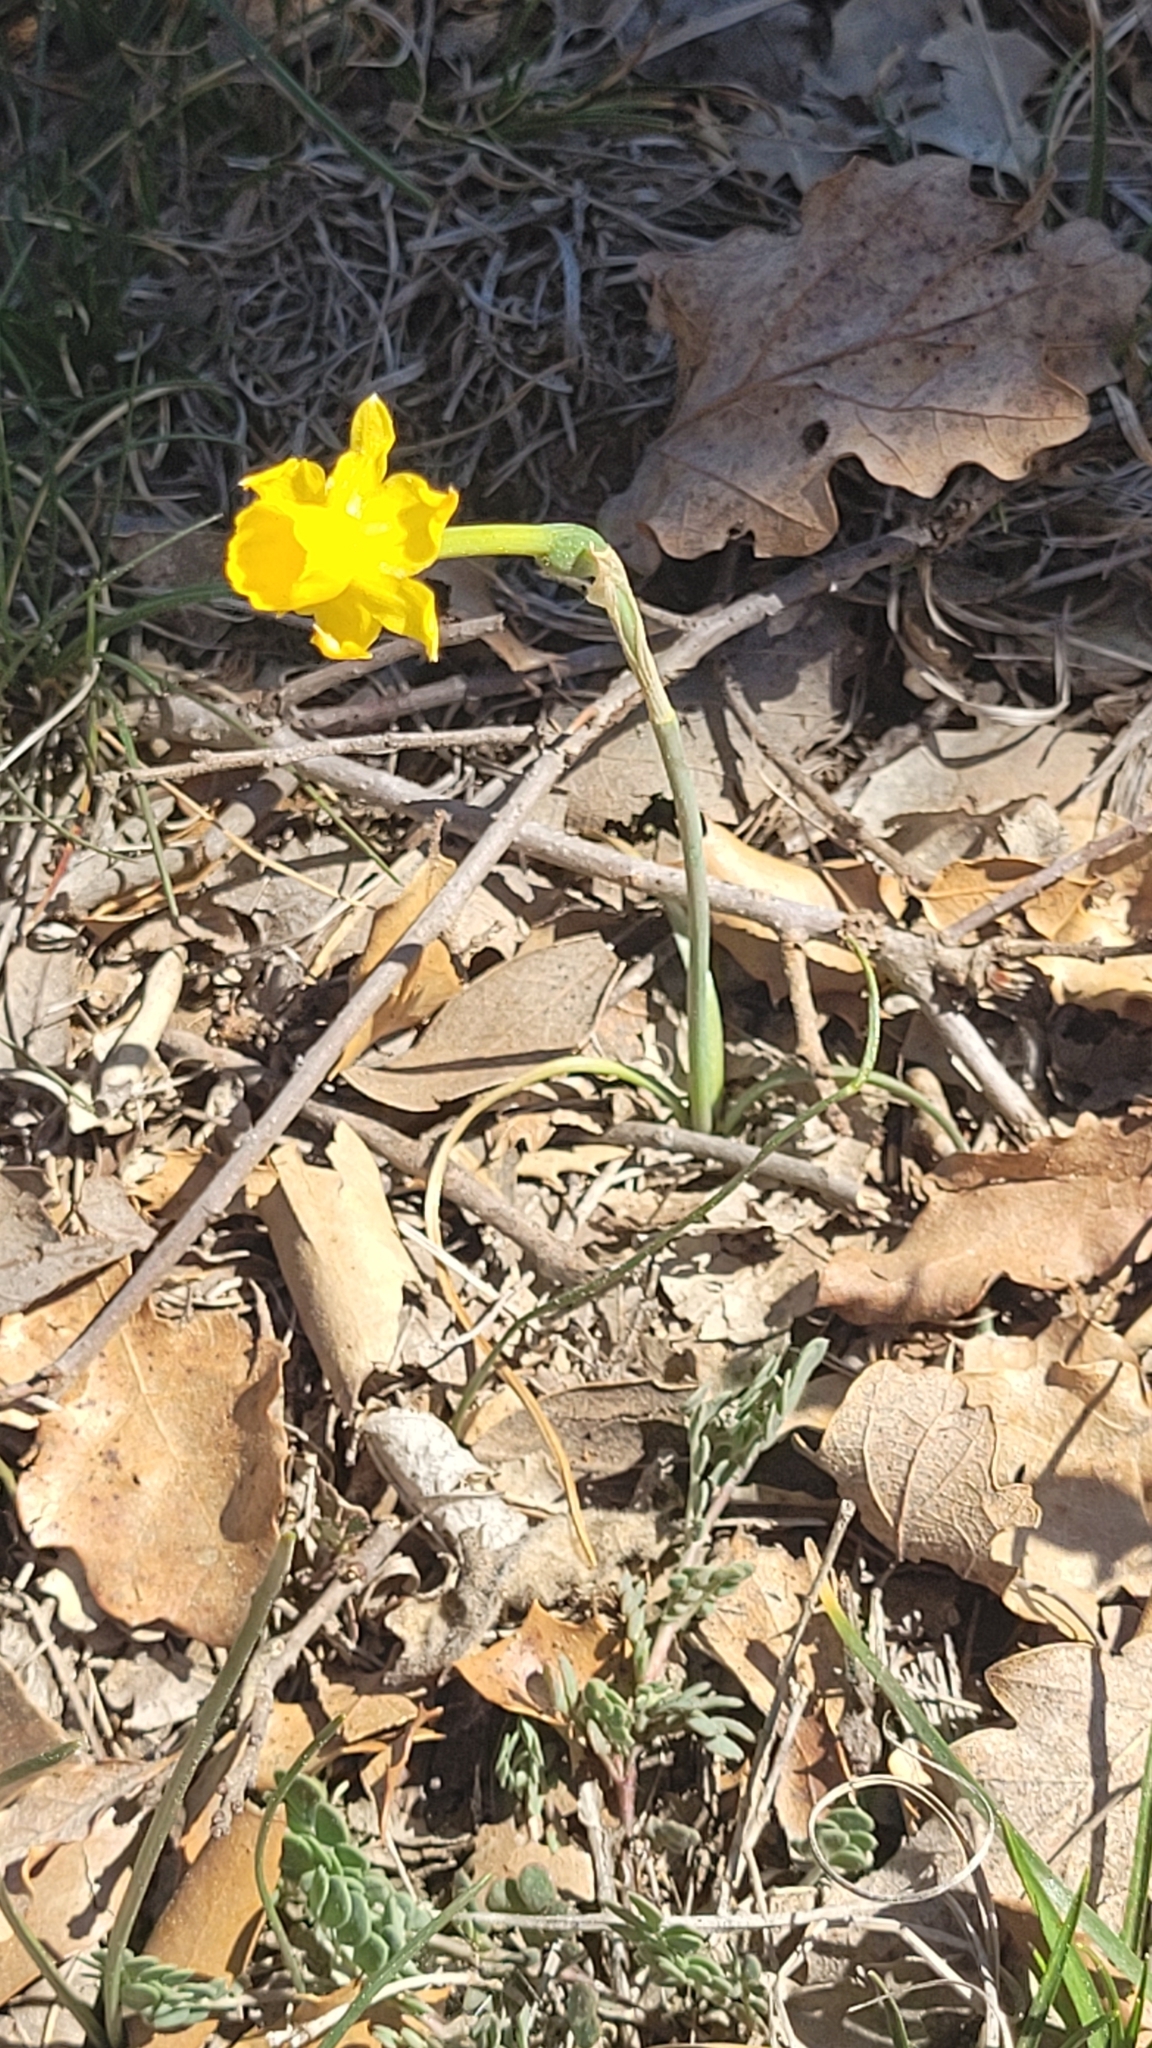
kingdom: Plantae
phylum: Tracheophyta
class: Liliopsida
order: Asparagales
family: Amaryllidaceae
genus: Narcissus
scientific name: Narcissus assoanus
